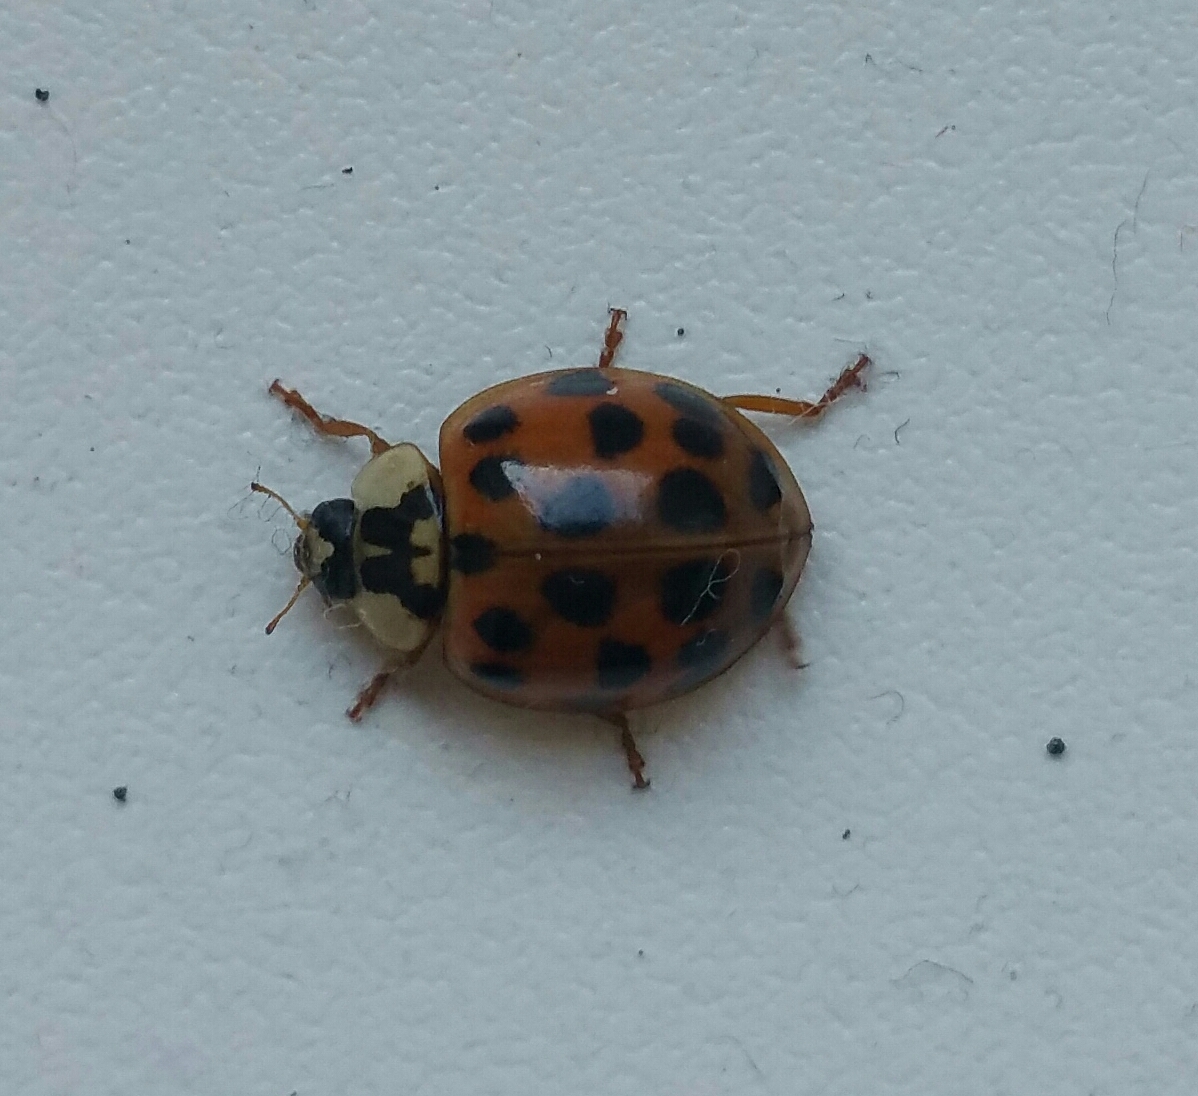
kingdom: Animalia
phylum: Arthropoda
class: Insecta
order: Coleoptera
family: Coccinellidae
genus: Harmonia
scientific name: Harmonia axyridis
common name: Harlequin ladybird
